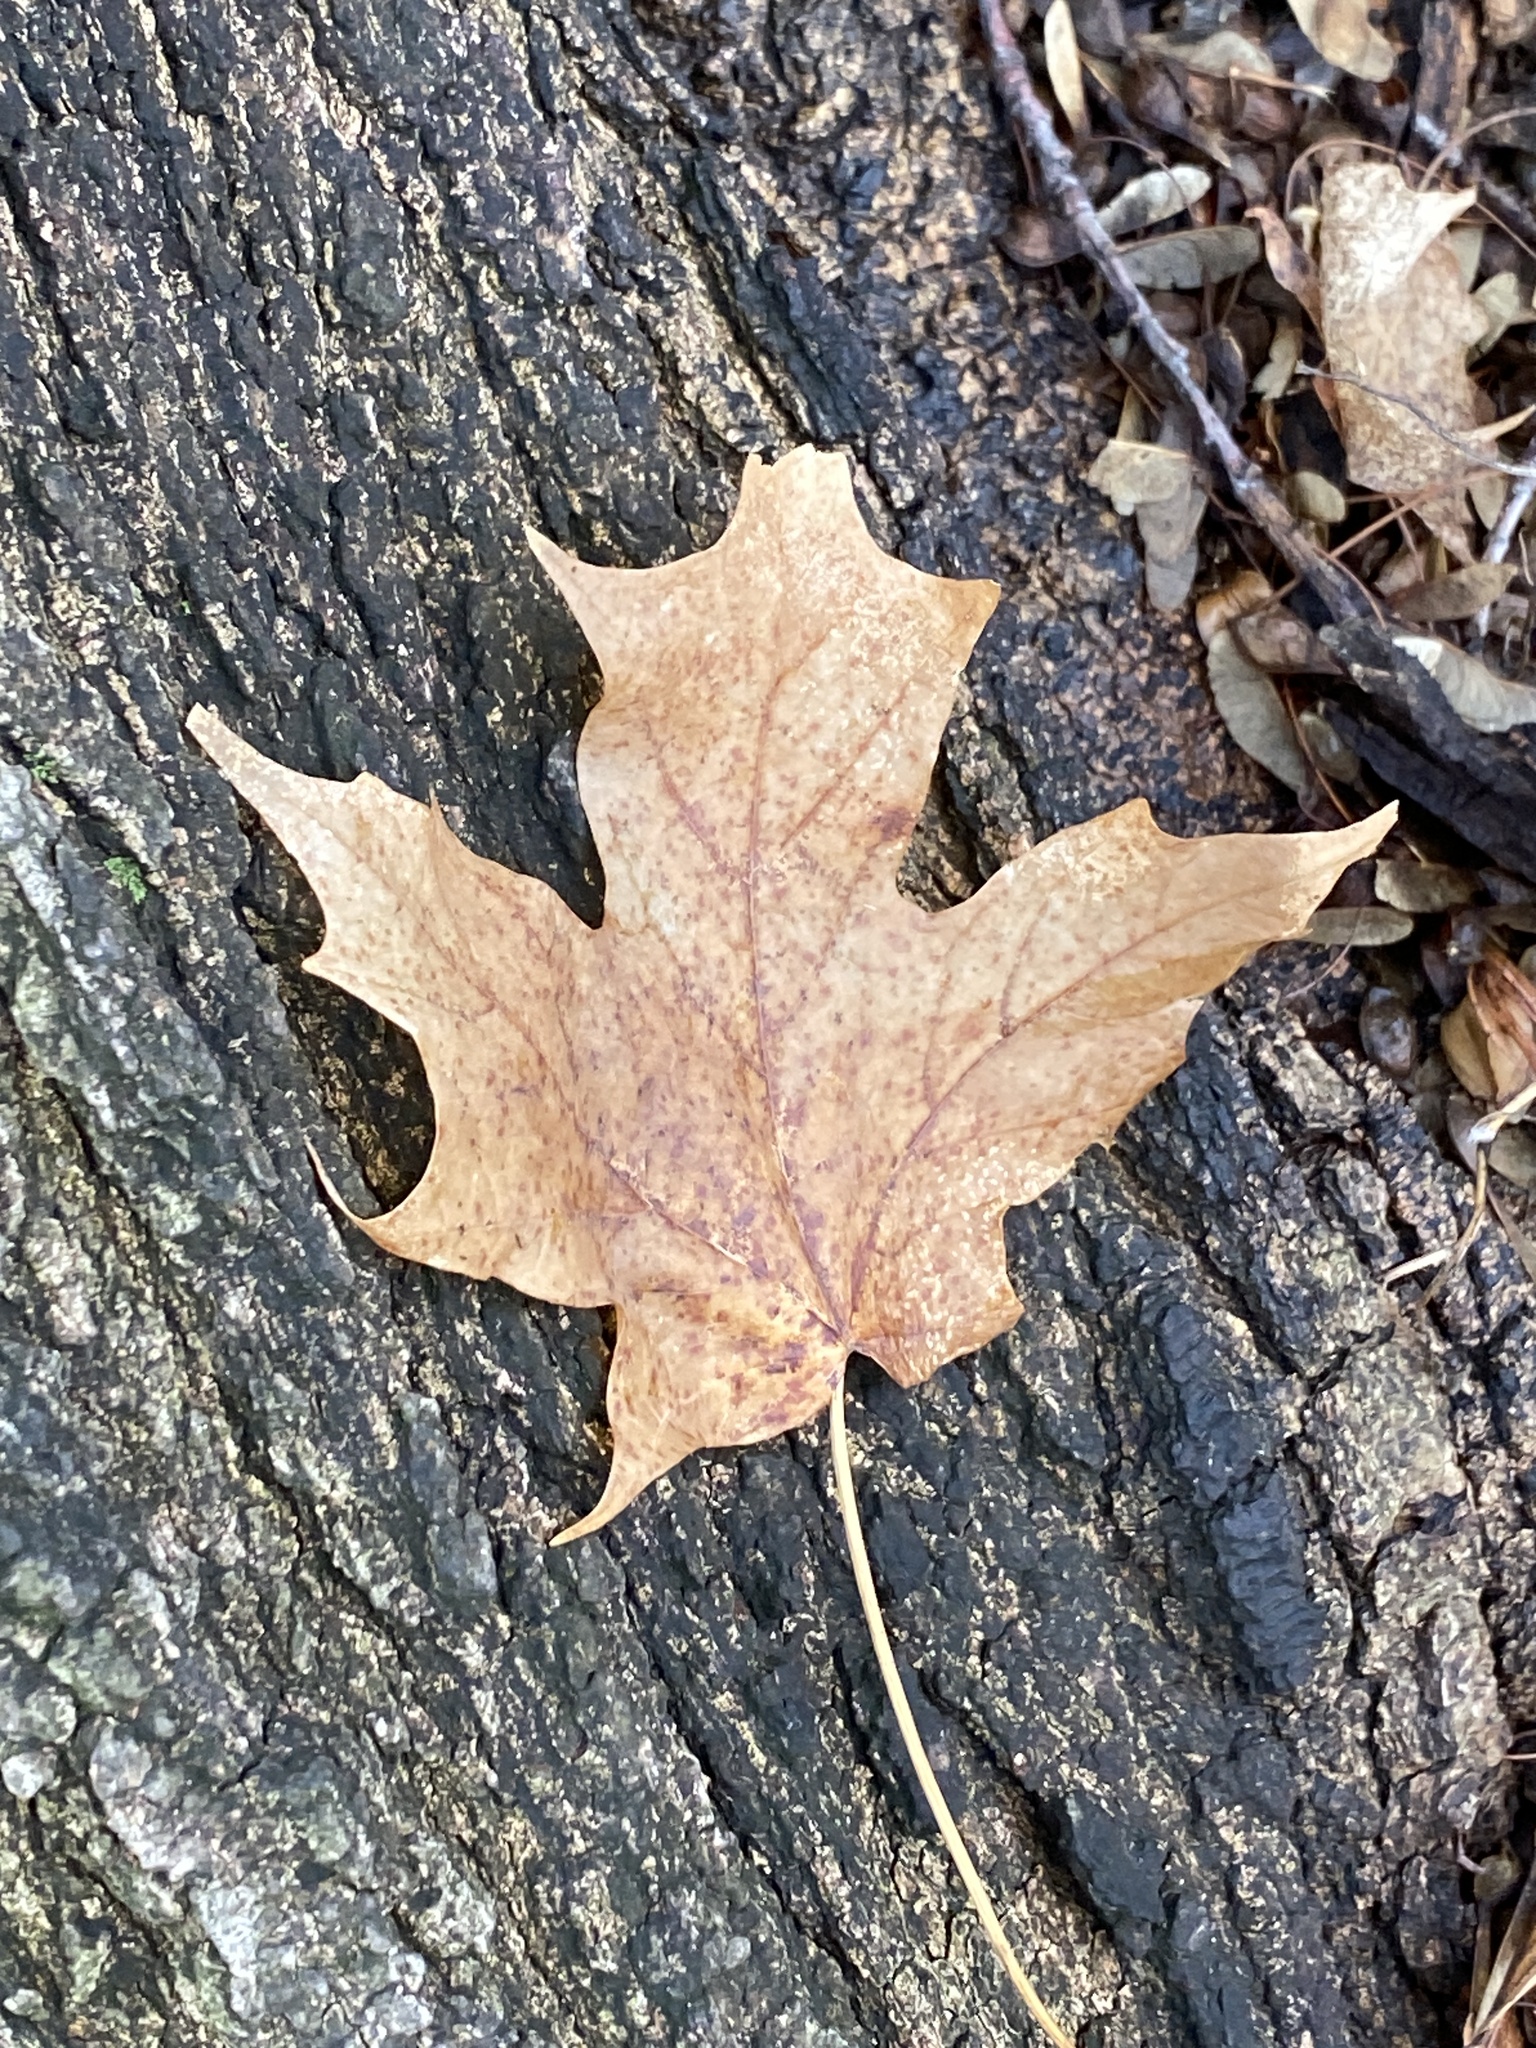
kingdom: Plantae
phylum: Tracheophyta
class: Magnoliopsida
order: Sapindales
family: Sapindaceae
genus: Acer
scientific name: Acer saccharum
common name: Sugar maple
